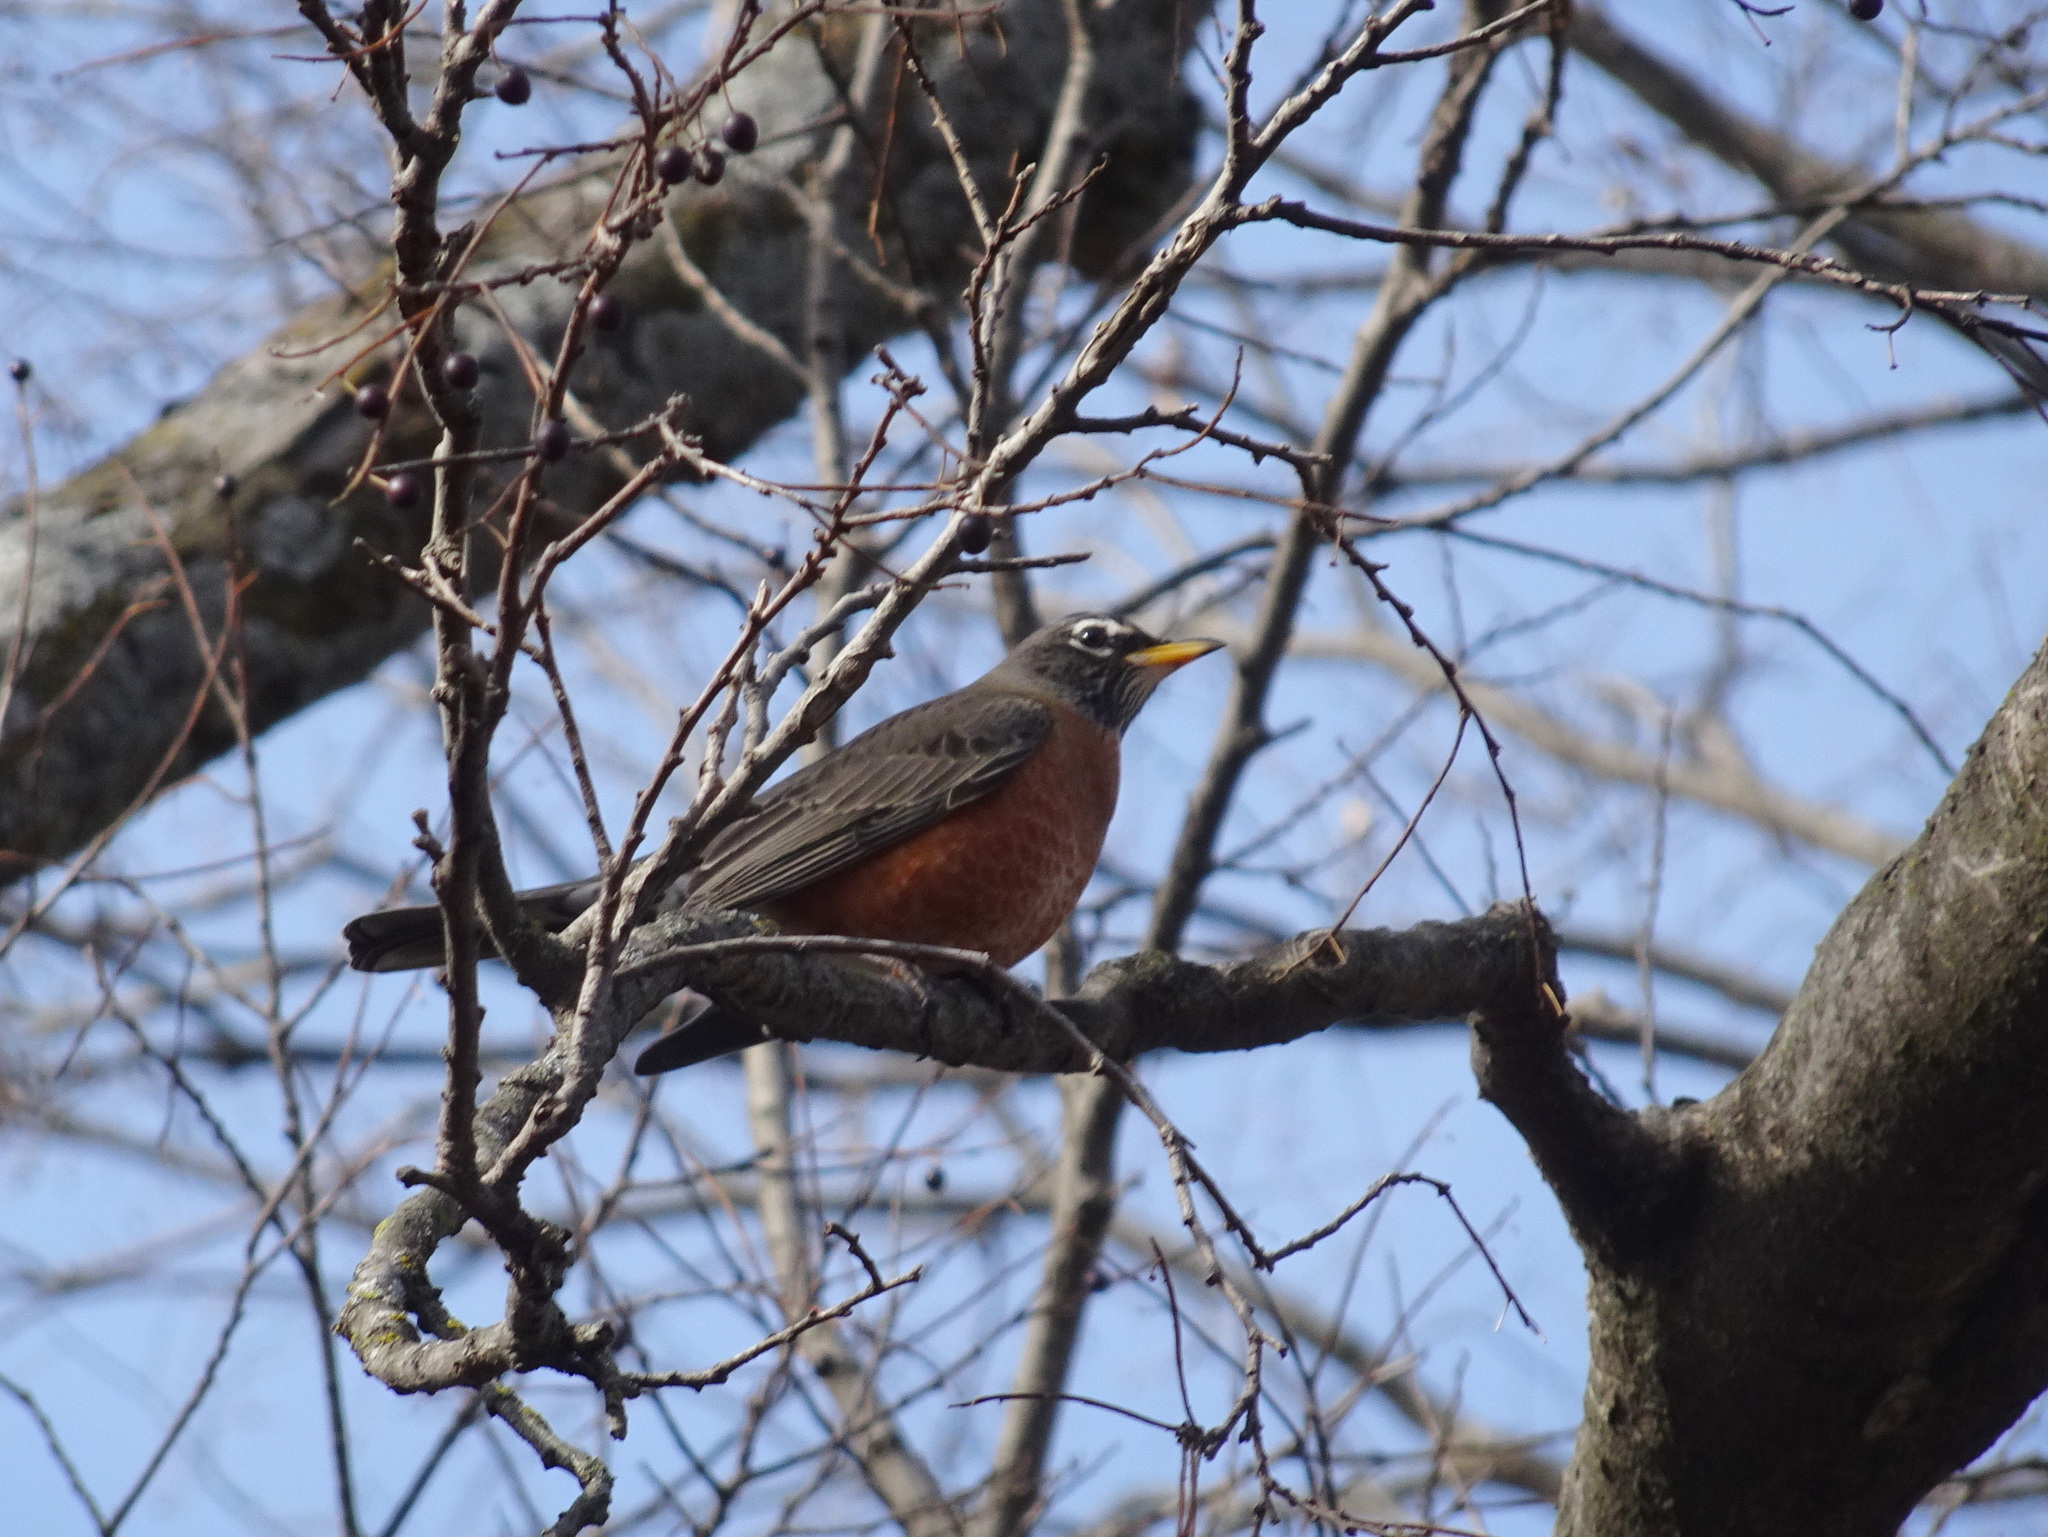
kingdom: Animalia
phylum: Chordata
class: Aves
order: Passeriformes
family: Turdidae
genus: Turdus
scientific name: Turdus migratorius
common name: American robin
